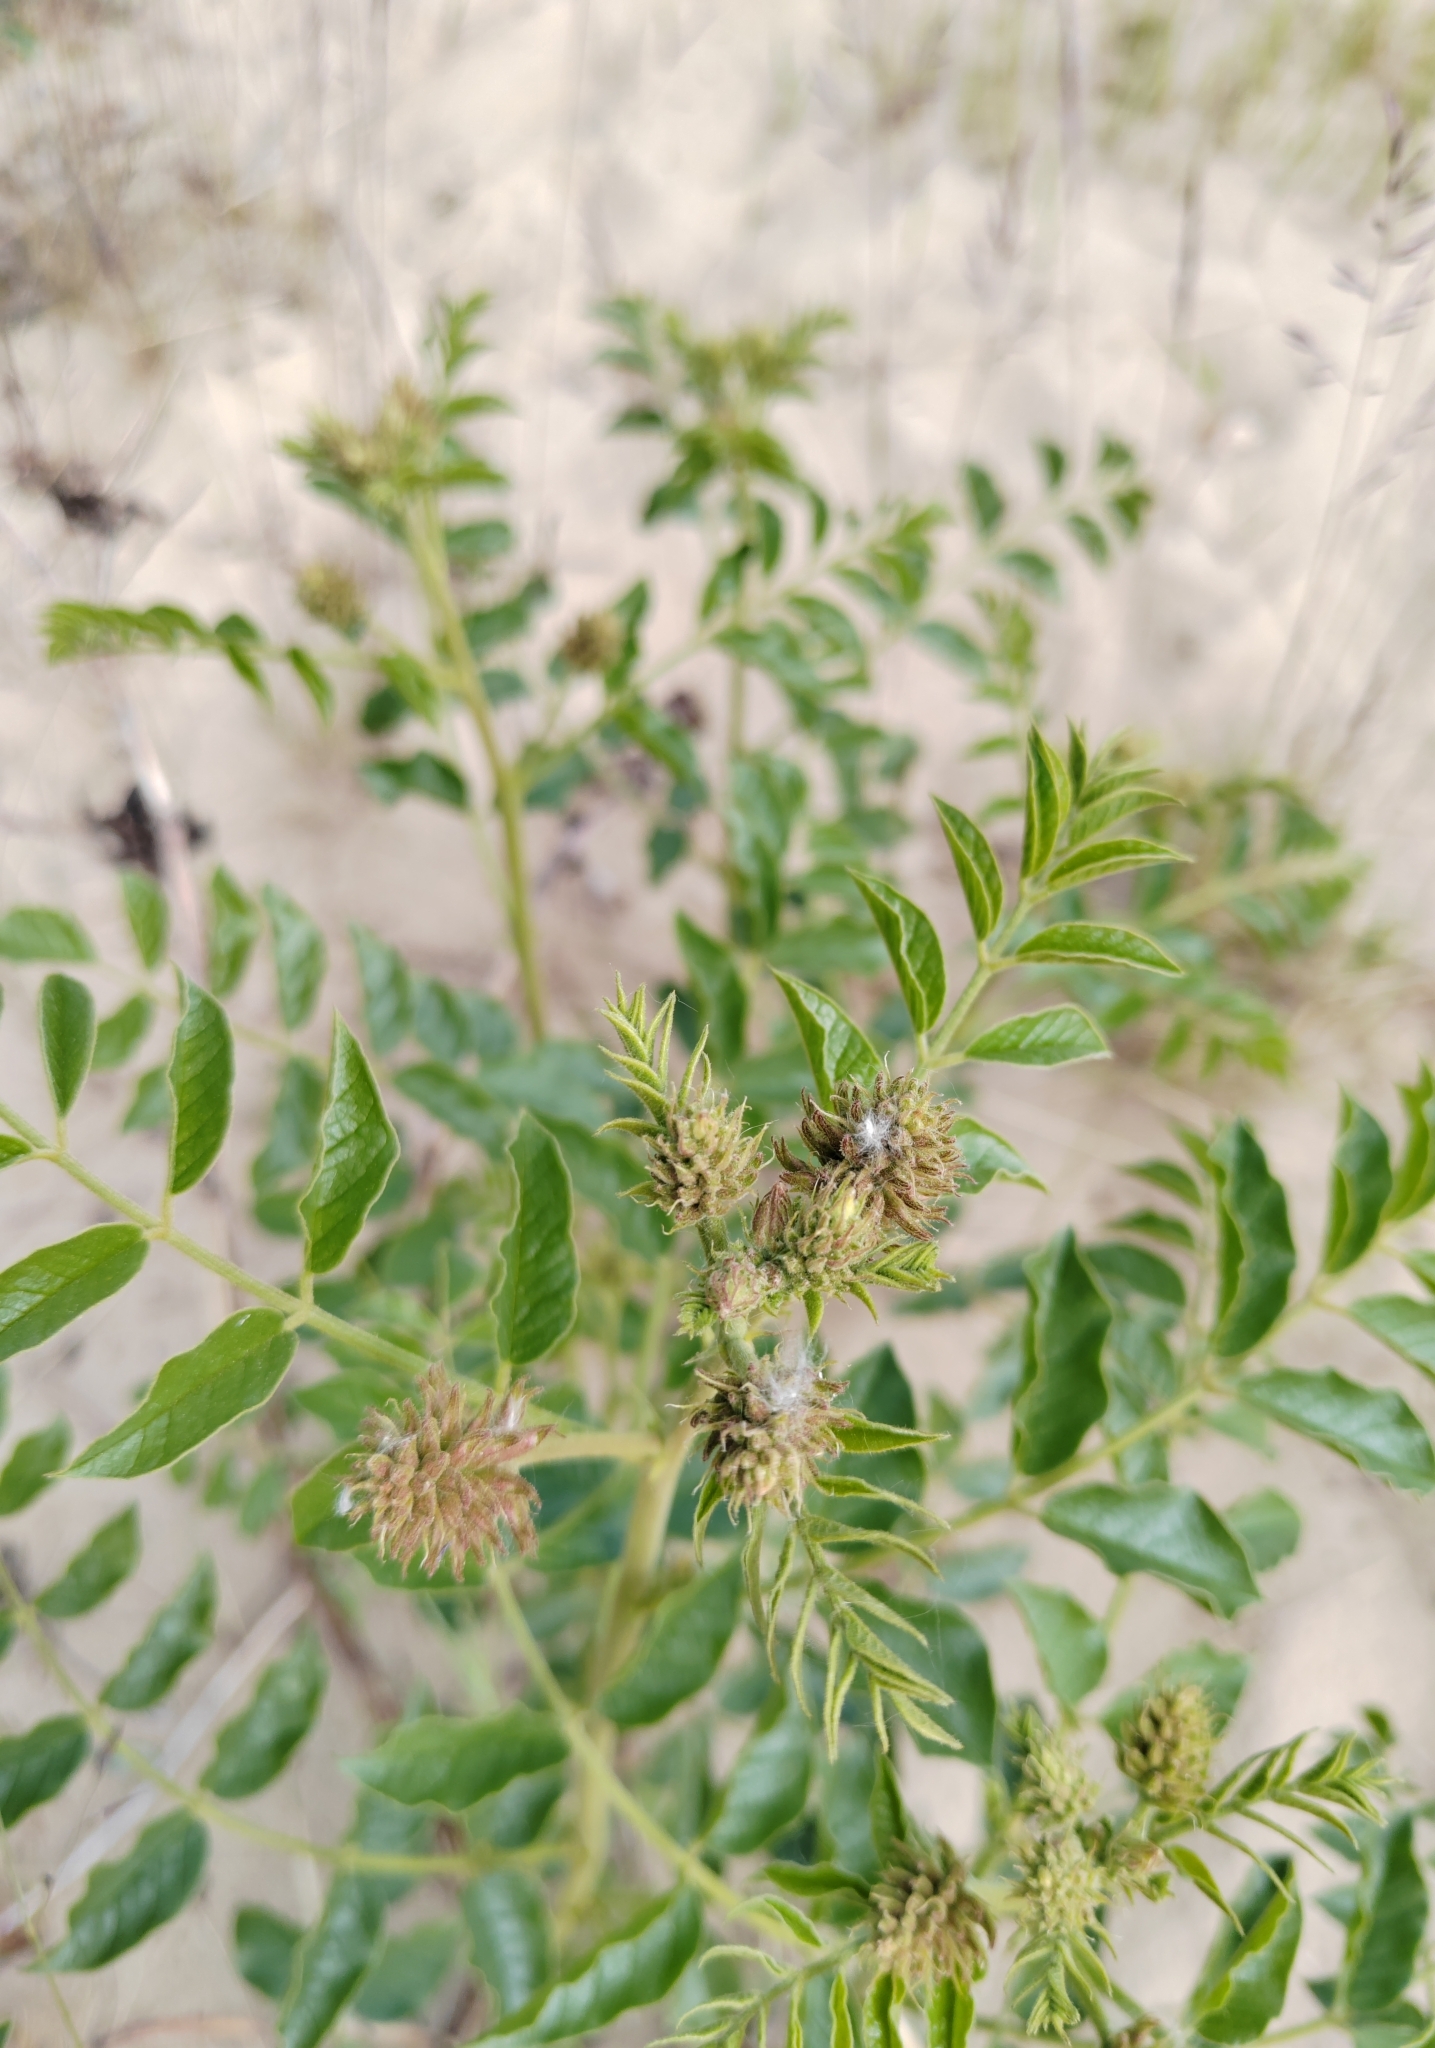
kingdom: Plantae
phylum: Tracheophyta
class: Magnoliopsida
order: Fabales
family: Fabaceae
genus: Glycyrrhiza
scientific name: Glycyrrhiza uralensis
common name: Chinese licorice
